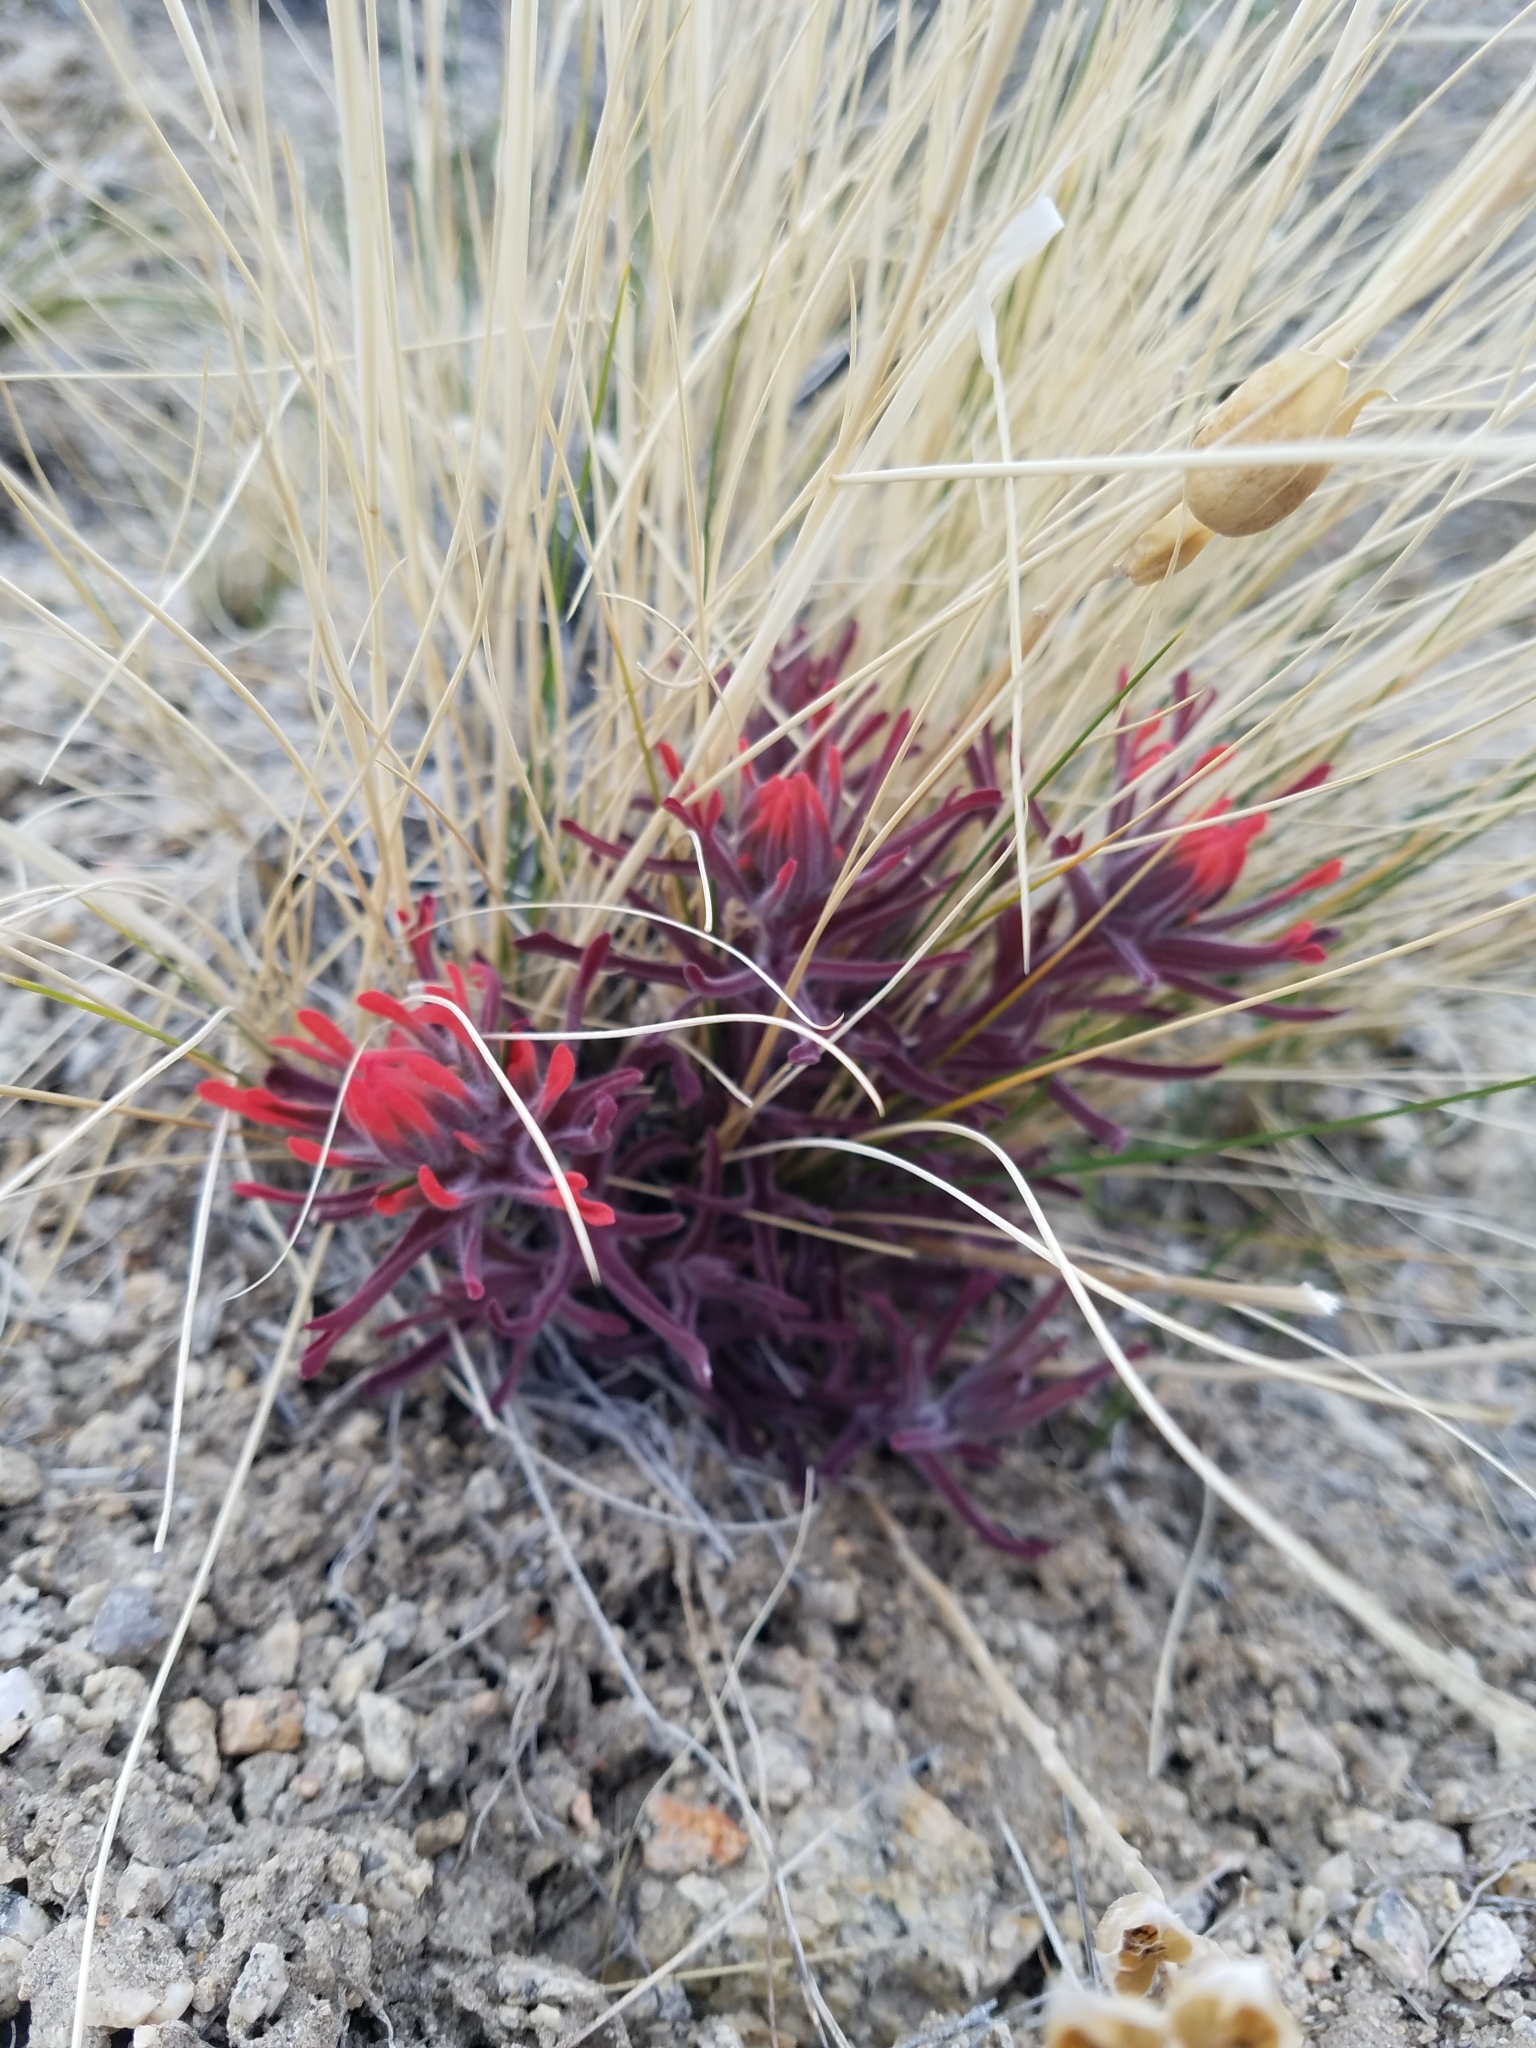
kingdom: Plantae
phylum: Tracheophyta
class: Magnoliopsida
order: Lamiales
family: Orobanchaceae
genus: Castilleja
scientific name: Castilleja chromosa
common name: Desert paintbrush
